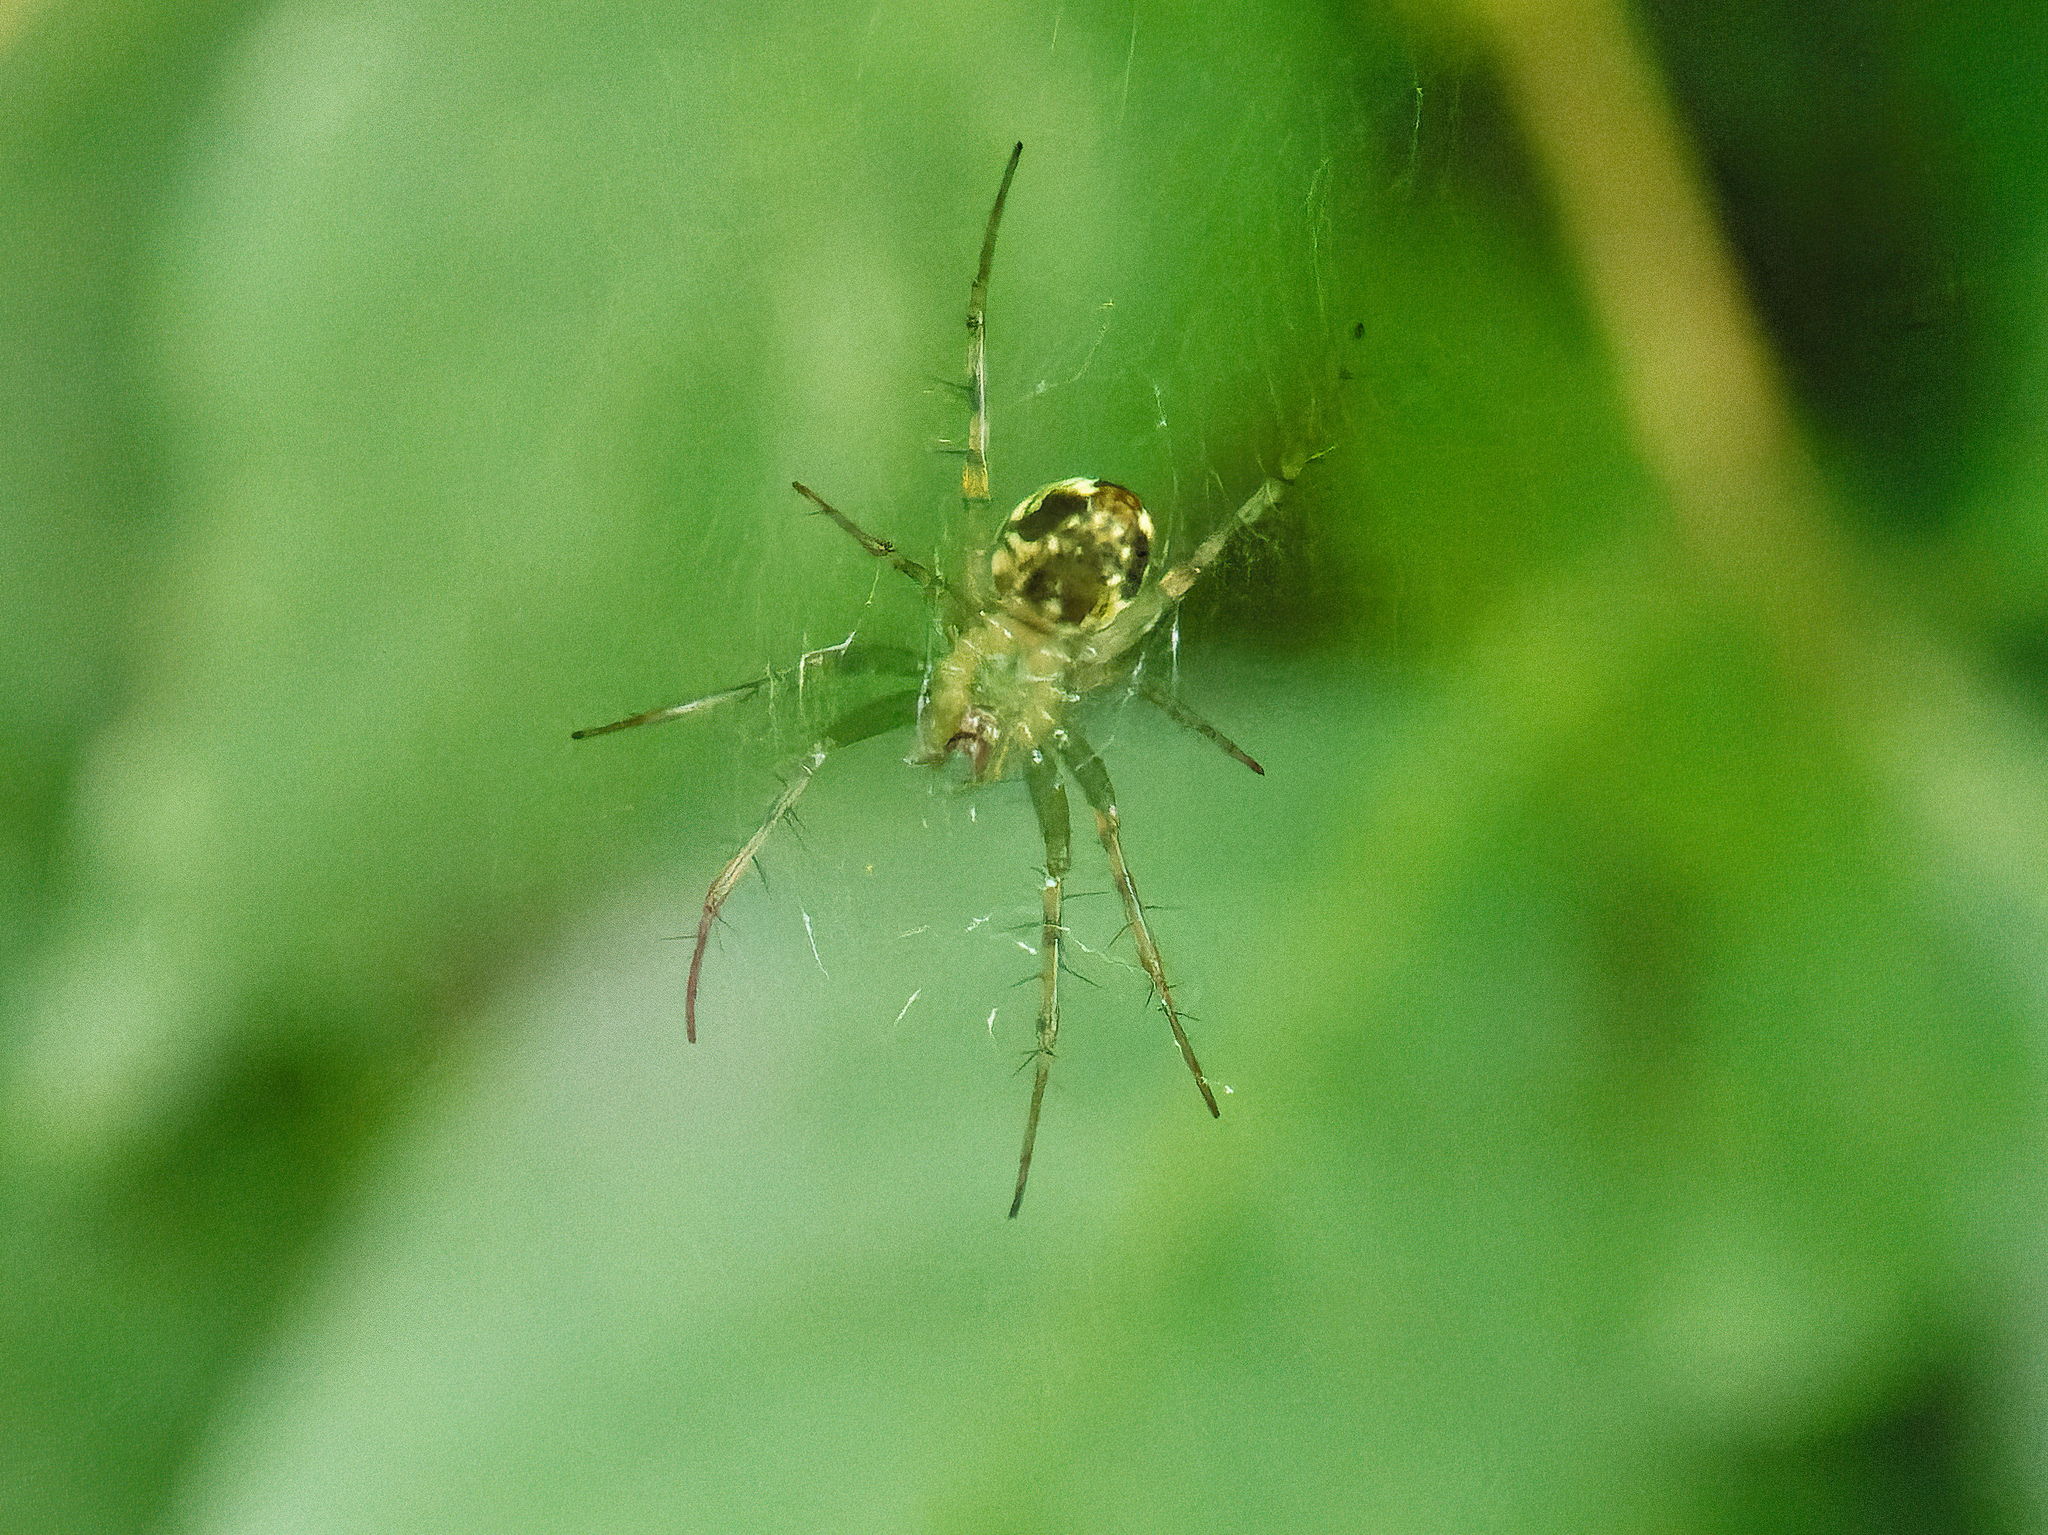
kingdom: Animalia
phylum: Arthropoda
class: Arachnida
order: Araneae
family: Araneidae
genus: Mangora
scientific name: Mangora maculata
